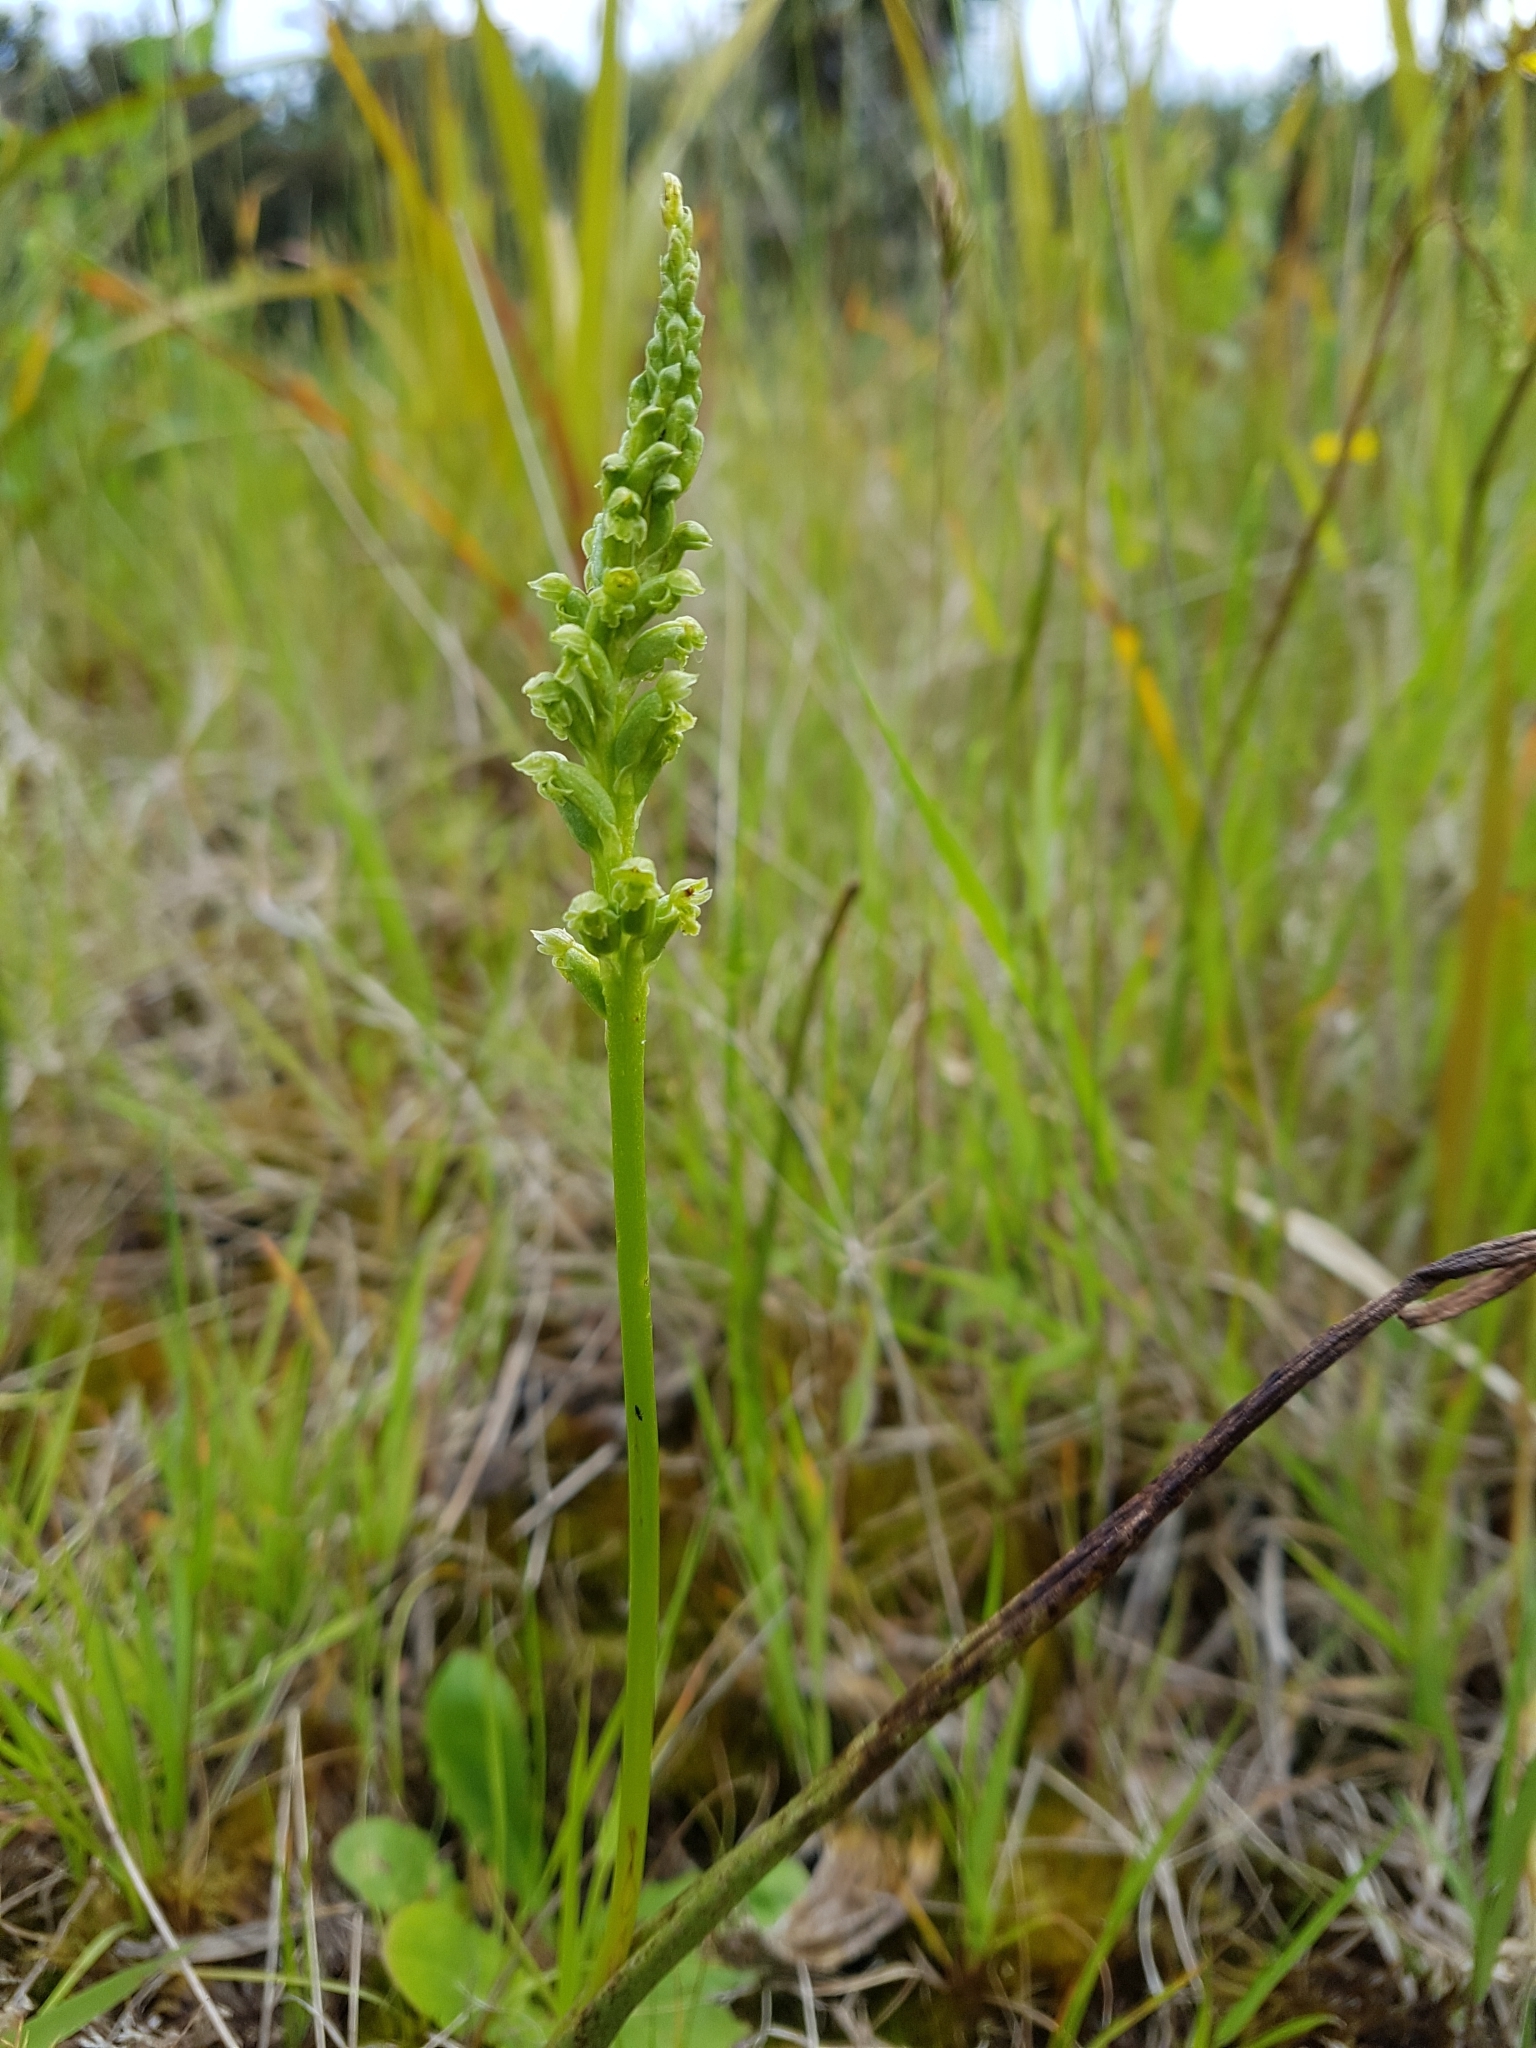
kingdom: Plantae
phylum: Tracheophyta
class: Liliopsida
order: Asparagales
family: Orchidaceae
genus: Microtis
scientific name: Microtis unifolia
